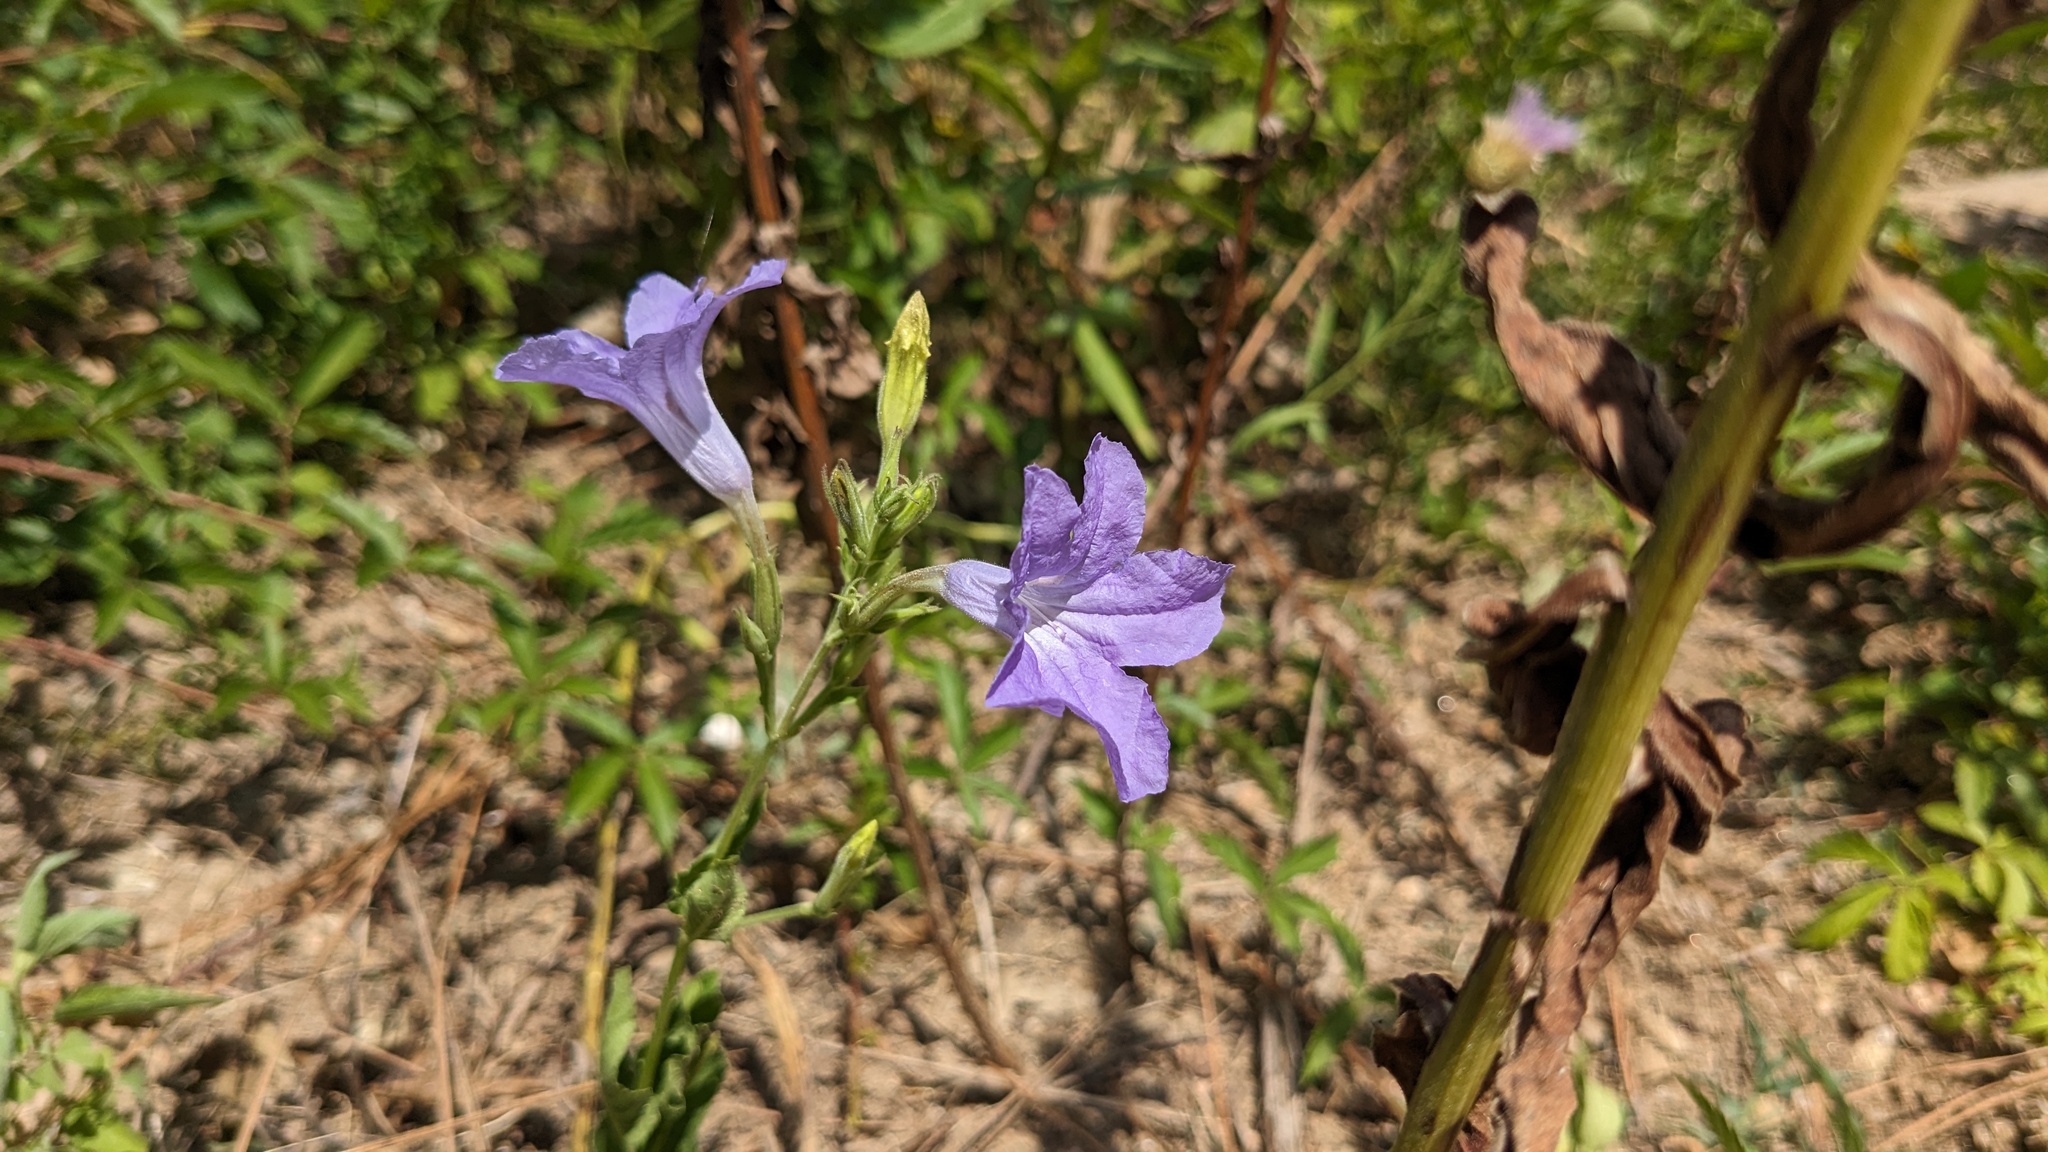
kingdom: Plantae
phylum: Tracheophyta
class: Magnoliopsida
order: Lamiales
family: Acanthaceae
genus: Ruellia
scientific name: Ruellia ciliatiflora
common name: Hairyflower wild petunia
